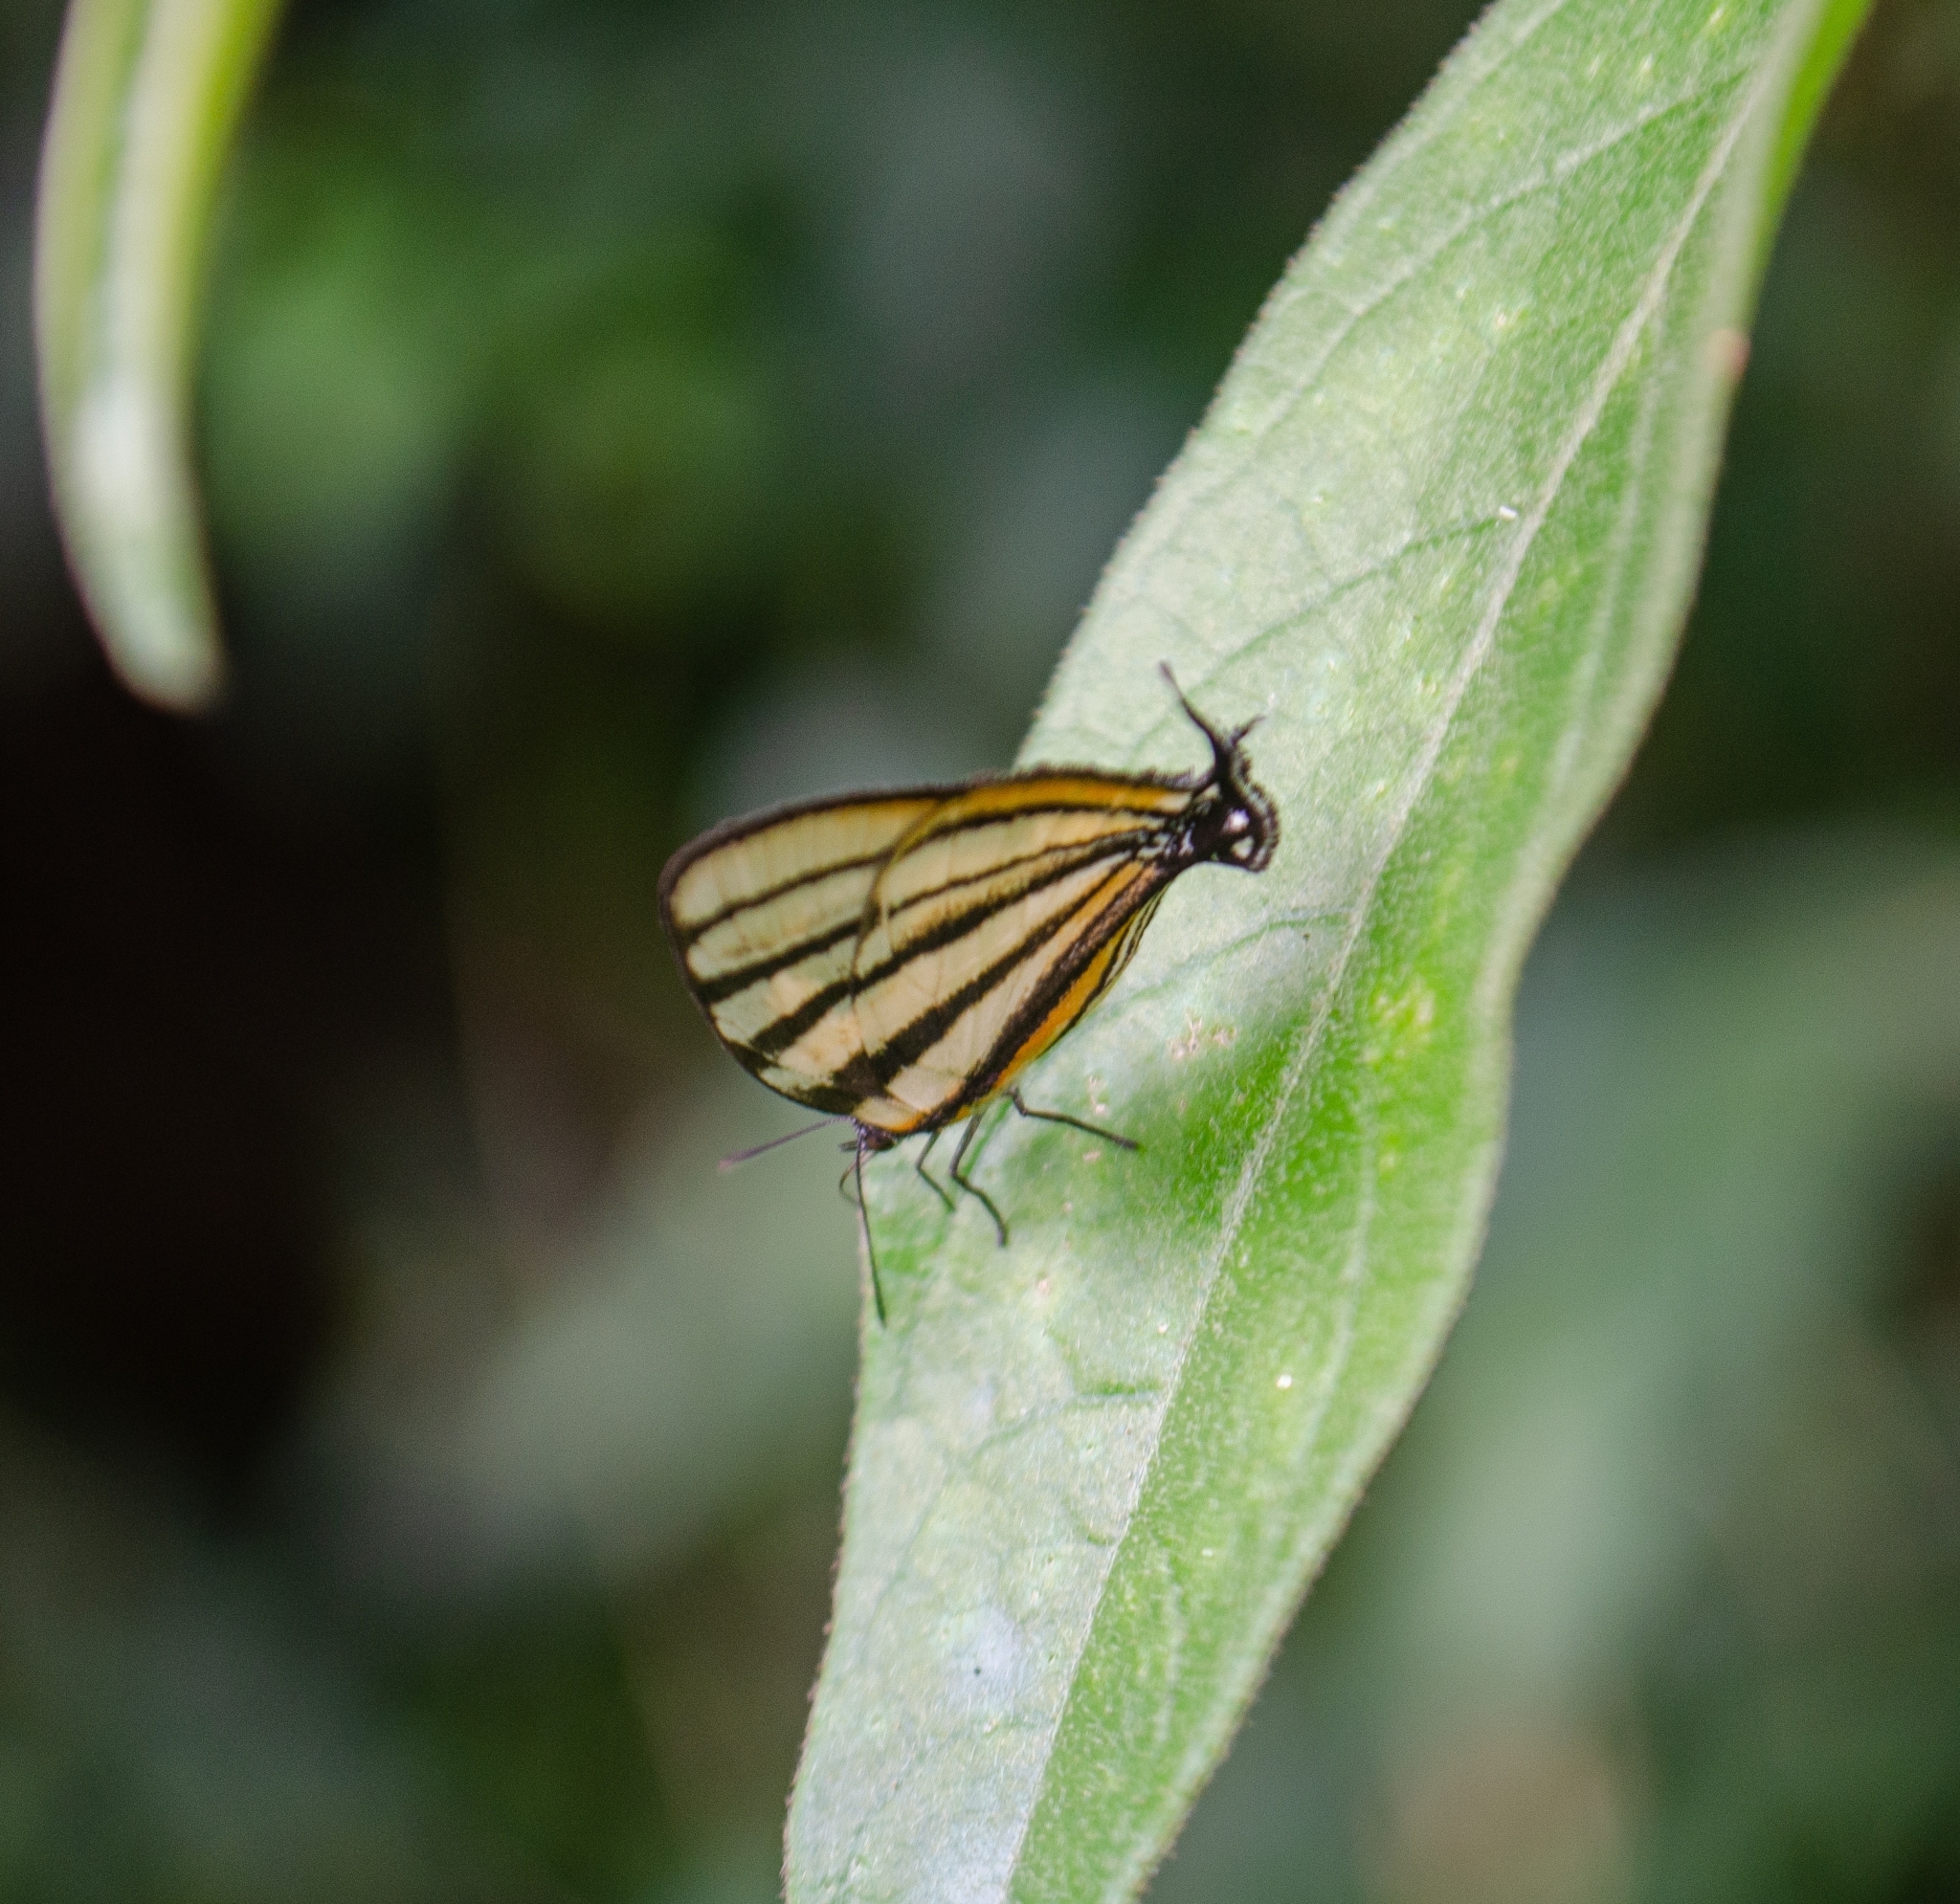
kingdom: Animalia
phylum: Arthropoda
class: Insecta
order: Lepidoptera
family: Lycaenidae
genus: Arawacus
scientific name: Arawacus separata
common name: Separated stripestreak
